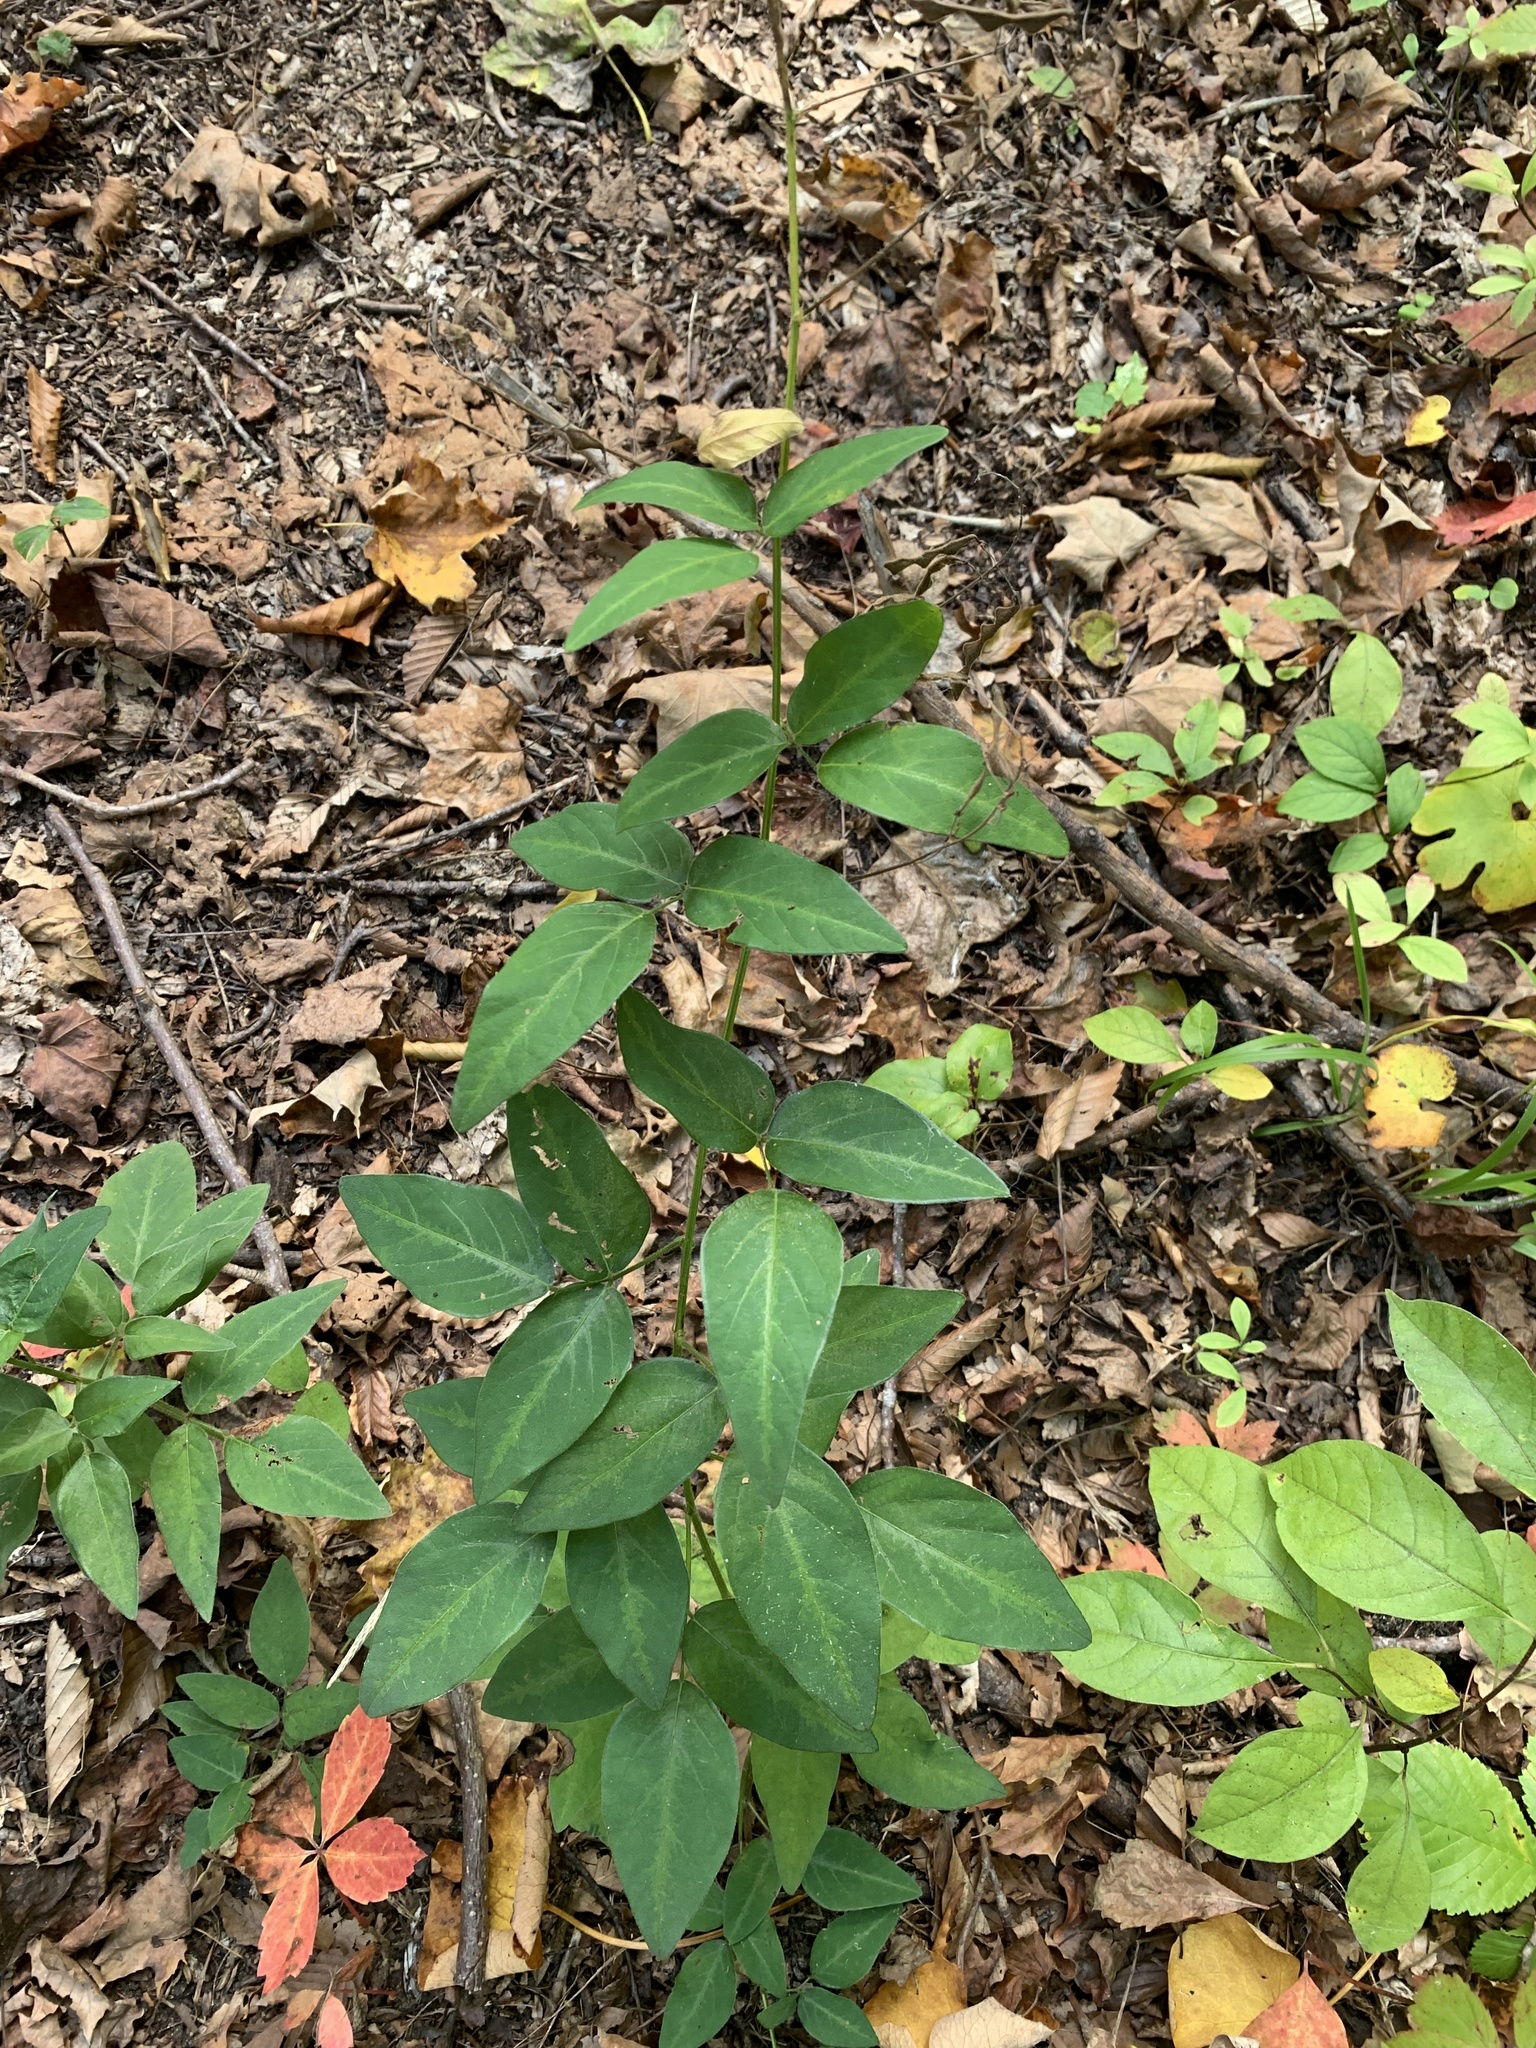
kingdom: Plantae
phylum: Tracheophyta
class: Magnoliopsida
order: Fabales
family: Fabaceae
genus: Desmodium
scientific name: Desmodium perplexum
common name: Perplexed tick trefoil
